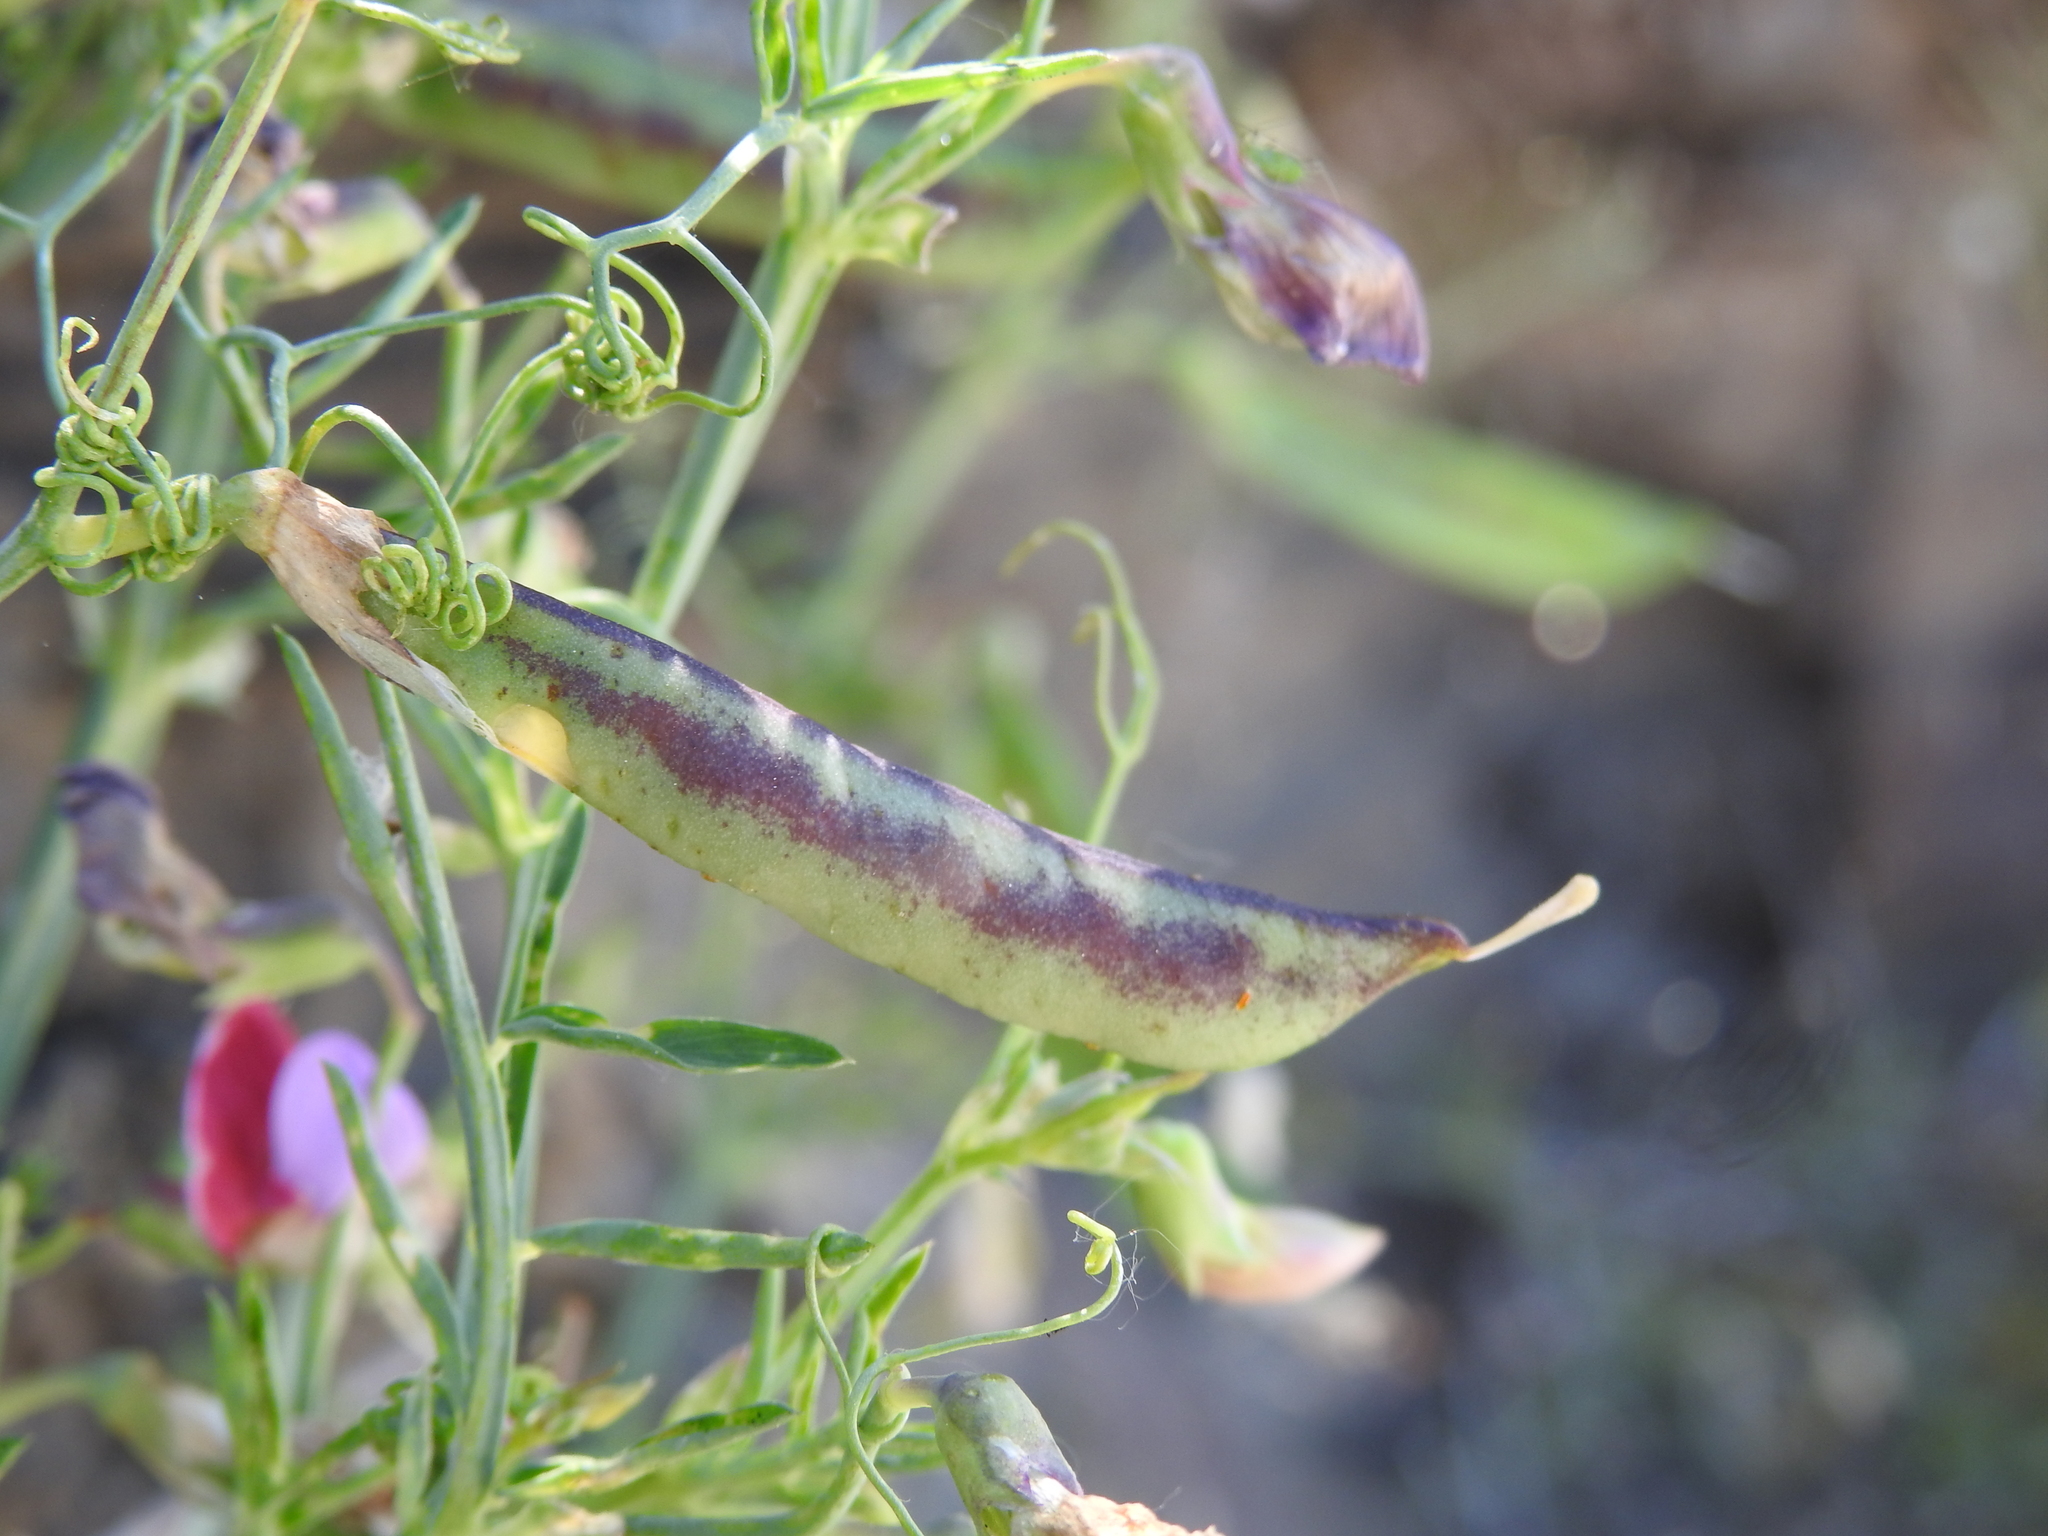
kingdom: Plantae
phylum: Tracheophyta
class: Magnoliopsida
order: Fabales
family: Fabaceae
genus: Lathyrus
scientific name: Lathyrus clymenum
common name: Spanish vetchling
